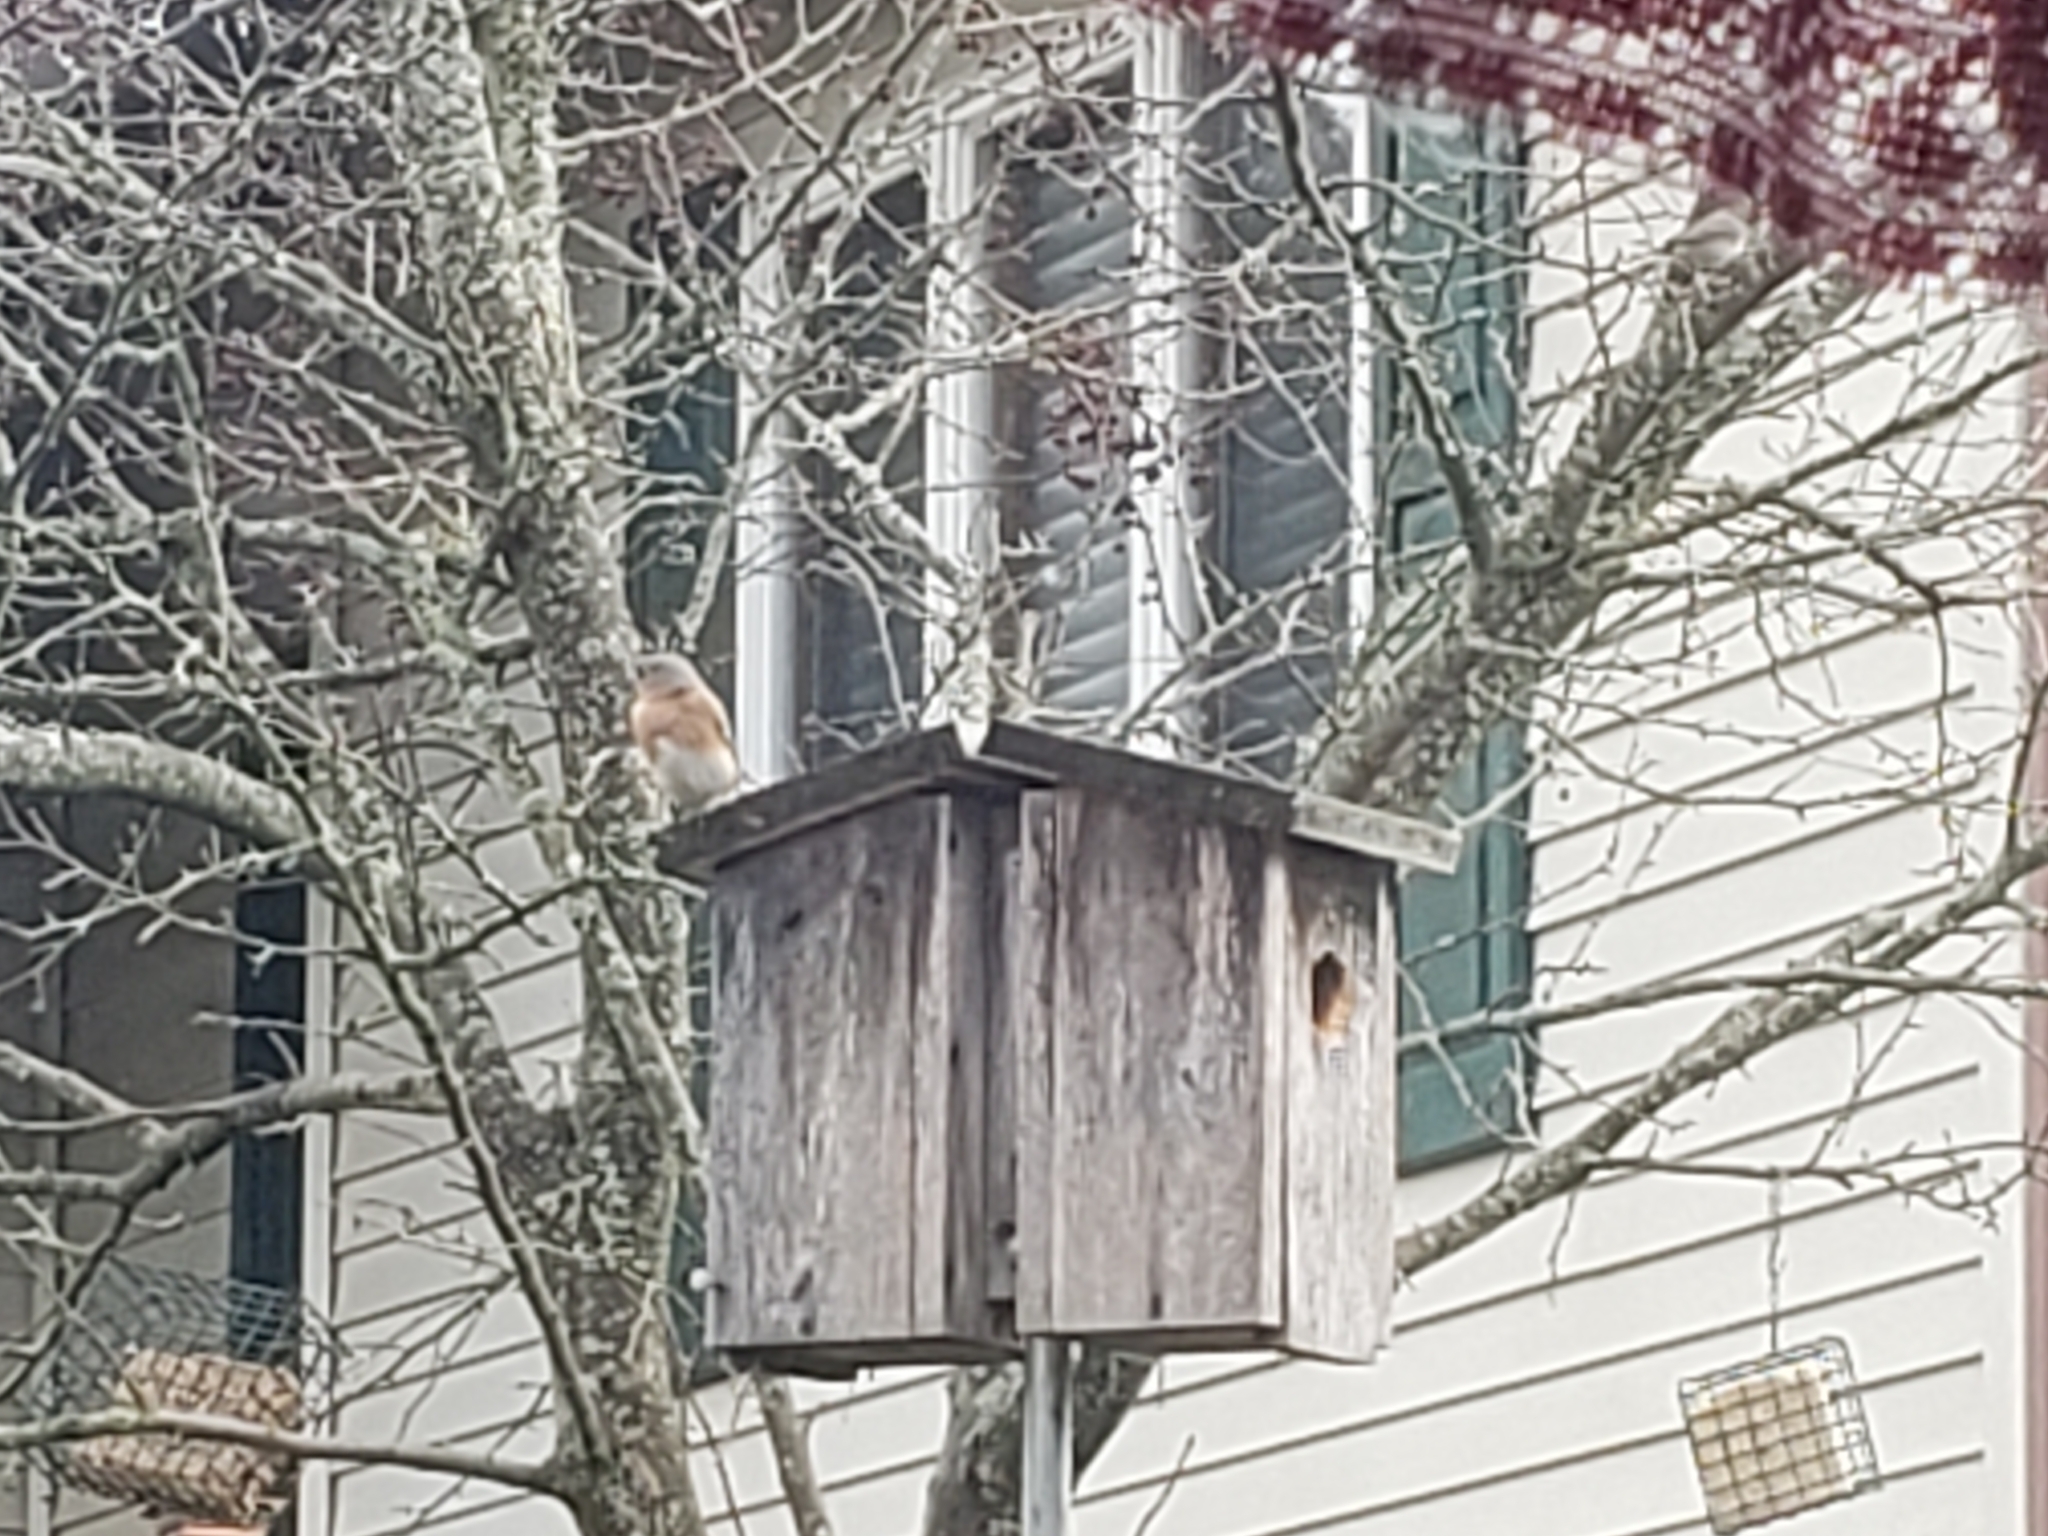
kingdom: Animalia
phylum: Chordata
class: Aves
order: Passeriformes
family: Turdidae
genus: Sialia
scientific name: Sialia sialis
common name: Eastern bluebird
